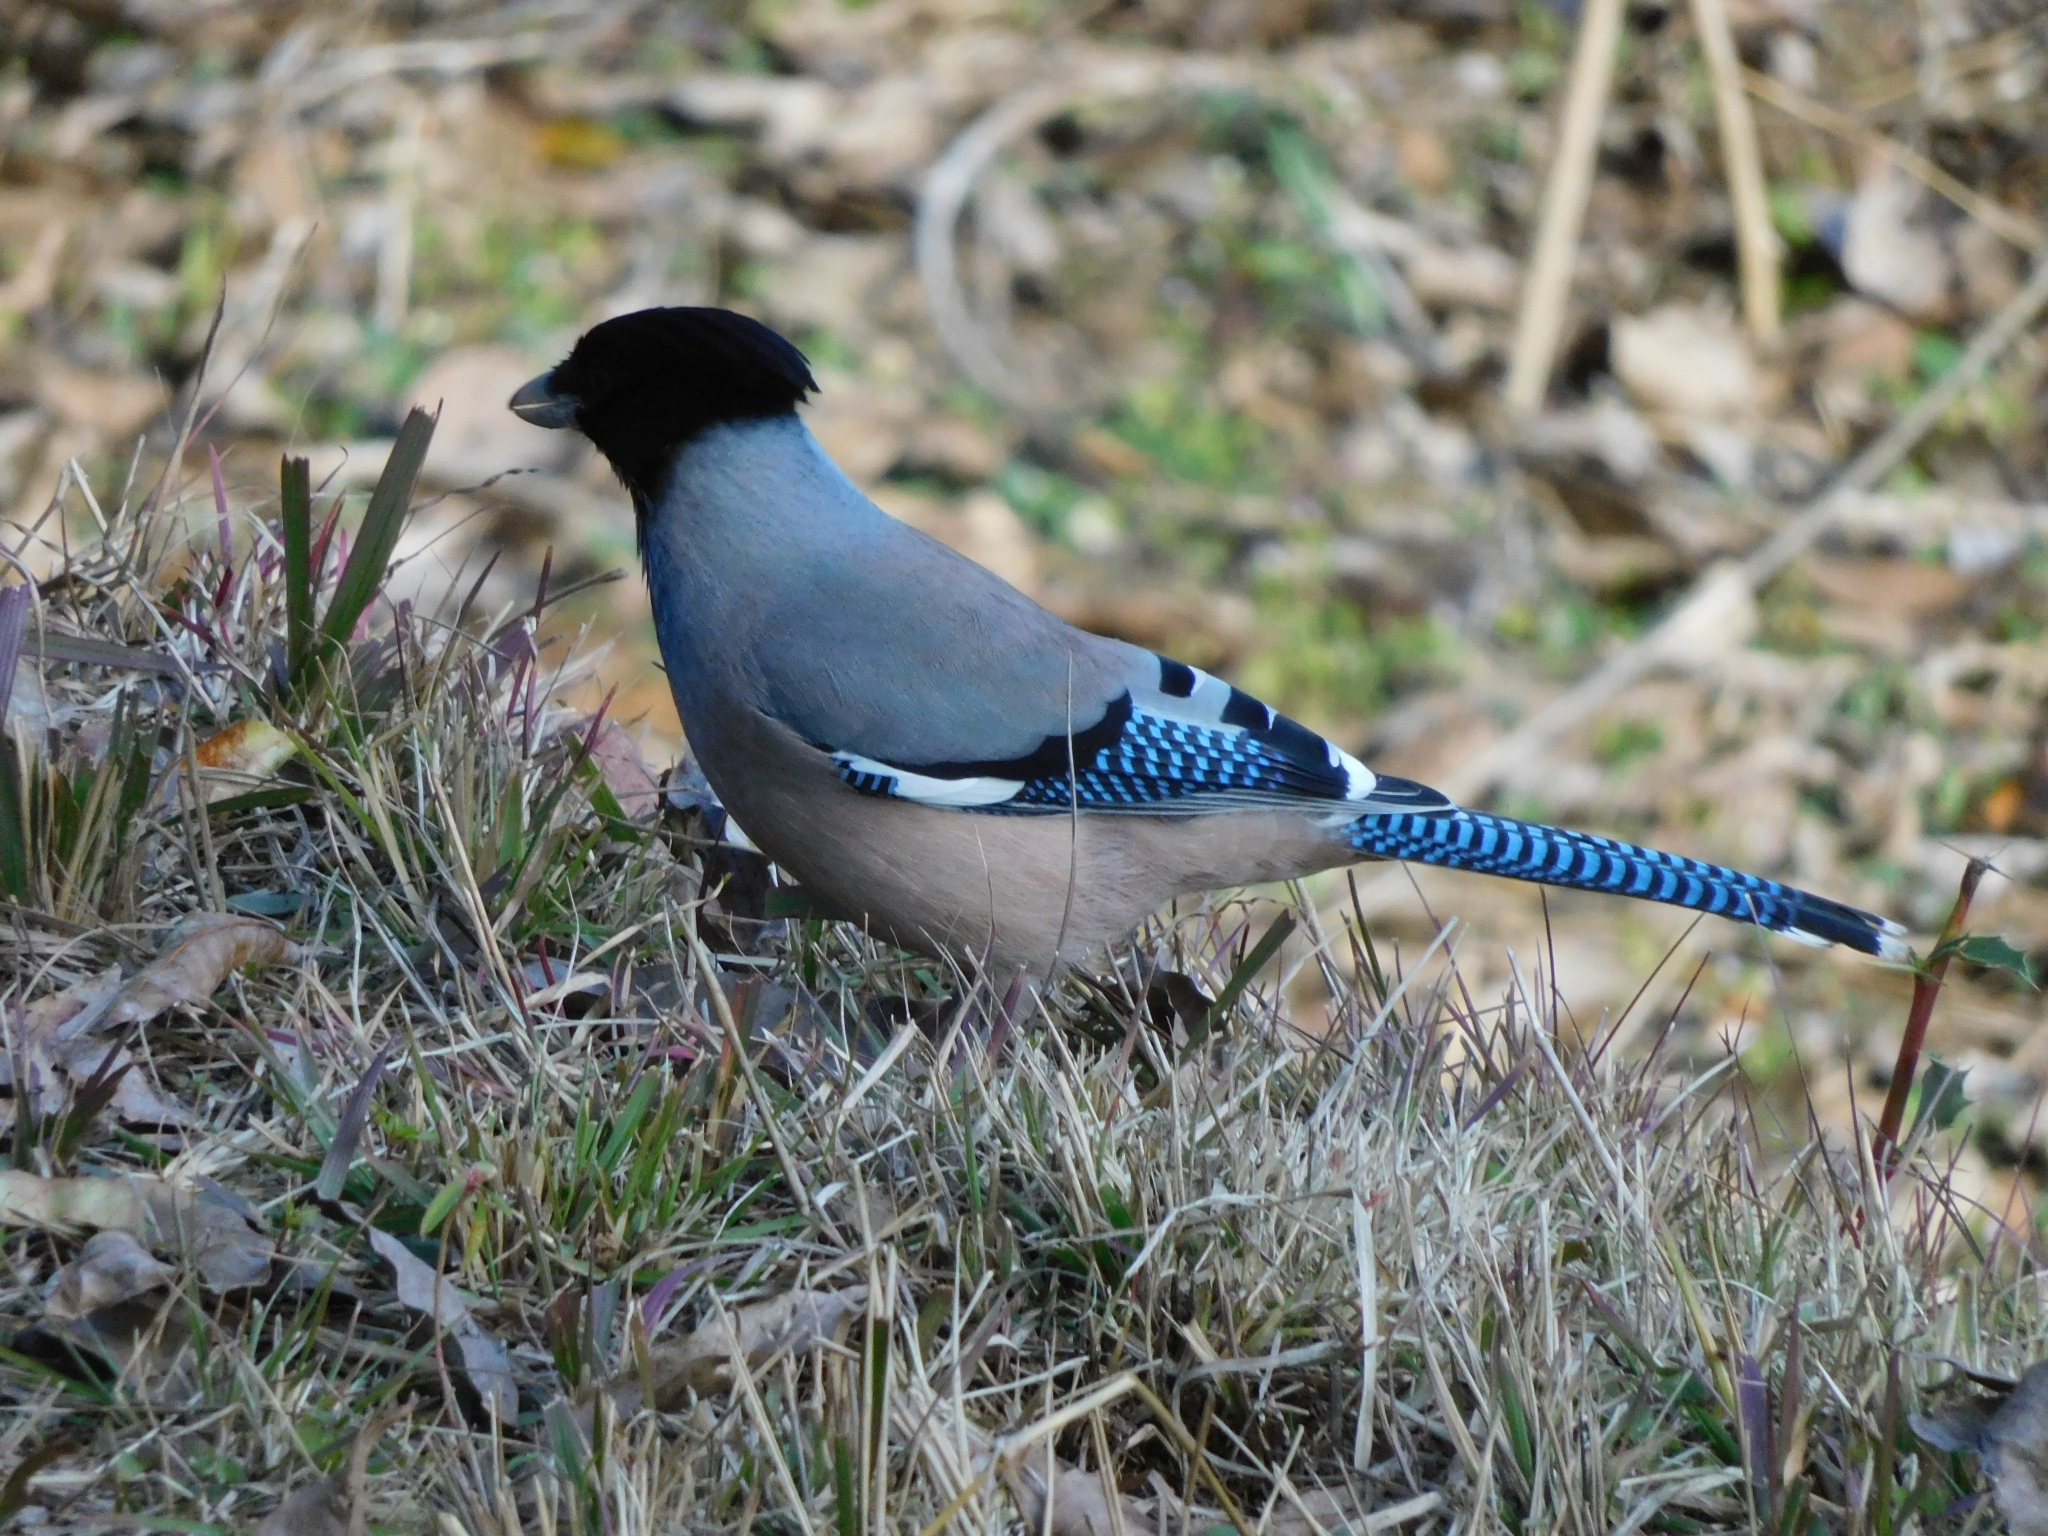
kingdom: Animalia
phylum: Chordata
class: Aves
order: Passeriformes
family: Corvidae
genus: Garrulus
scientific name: Garrulus lanceolatus
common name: Black-headed jay
